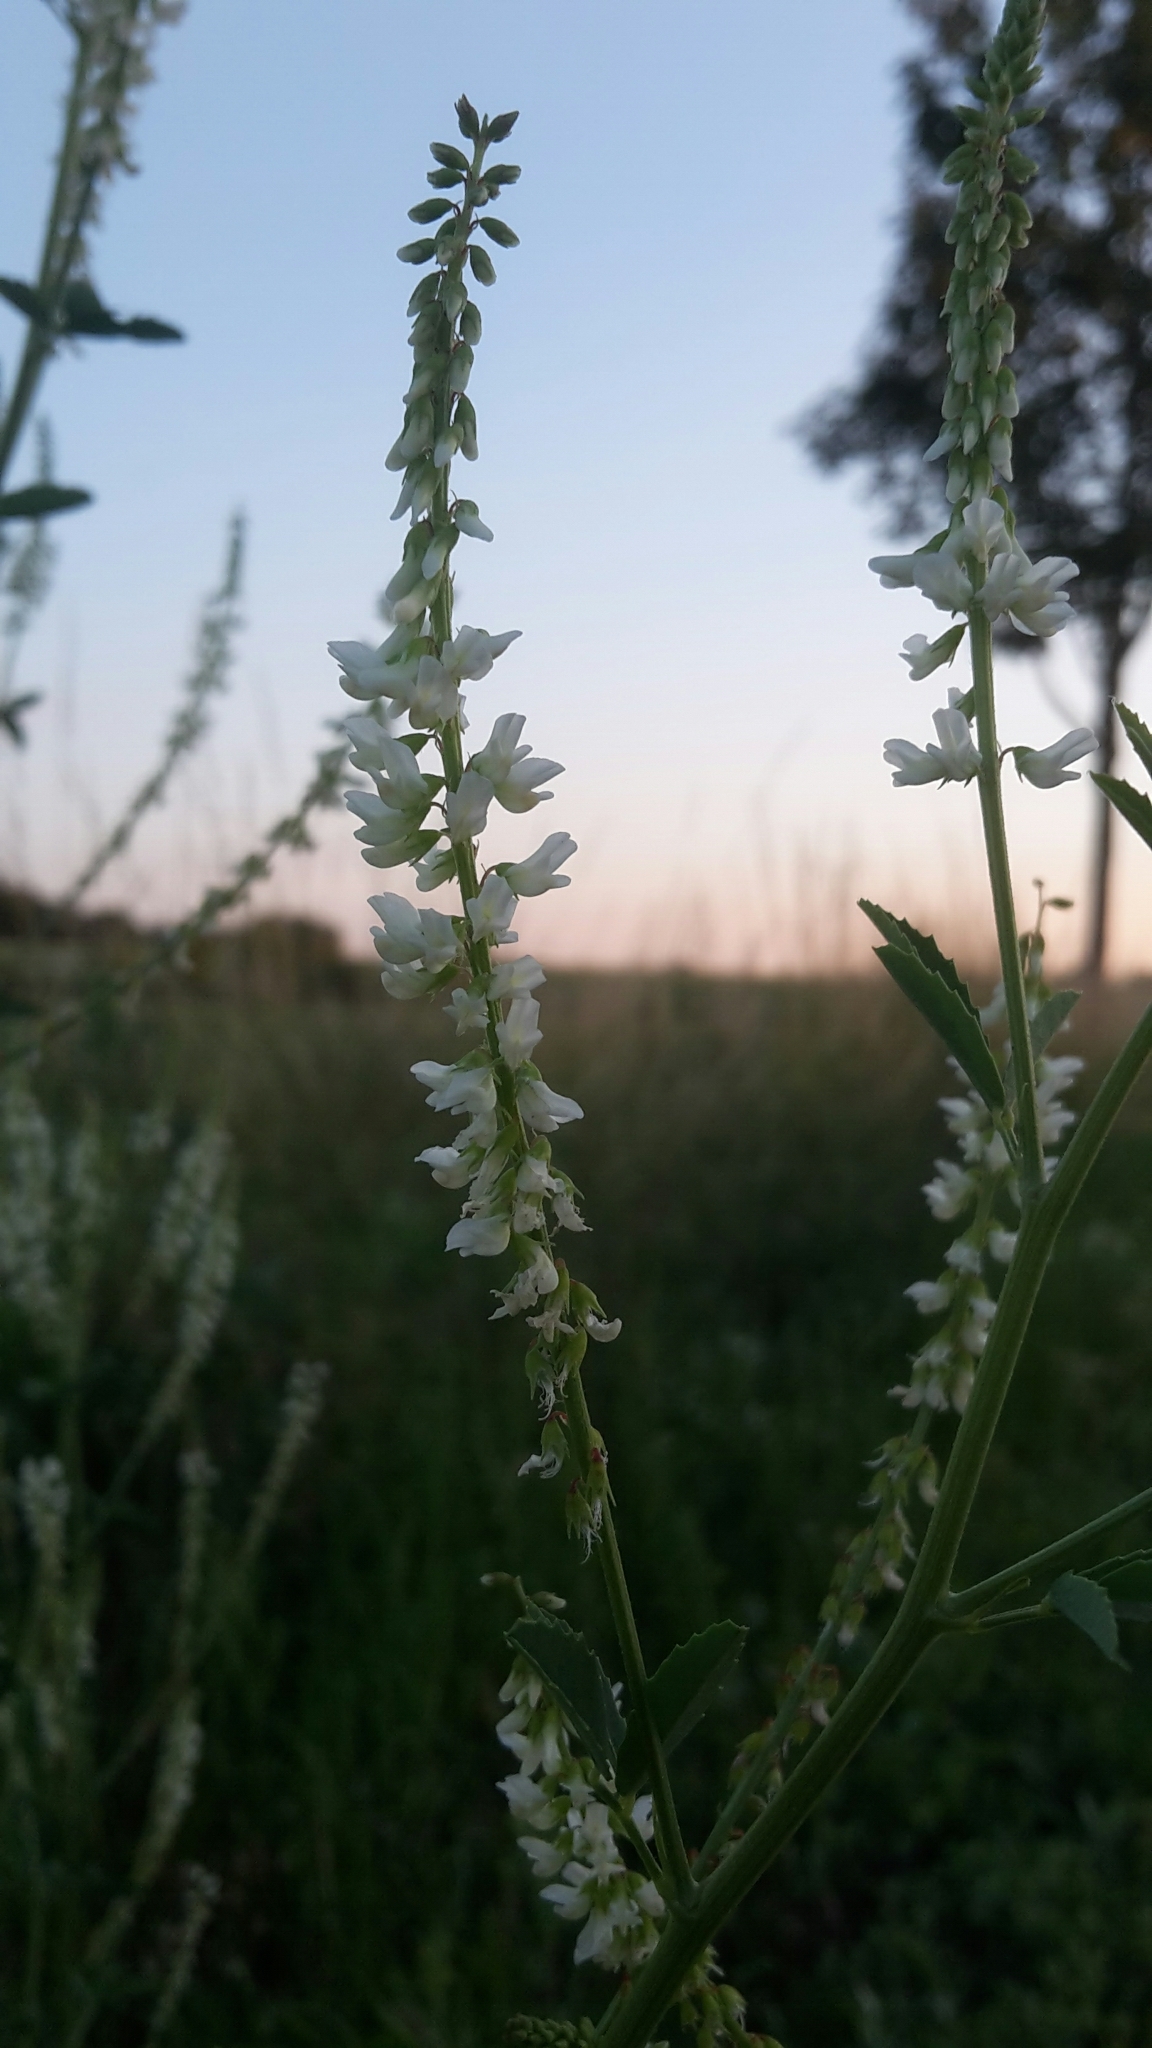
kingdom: Plantae
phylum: Tracheophyta
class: Magnoliopsida
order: Fabales
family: Fabaceae
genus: Melilotus
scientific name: Melilotus albus
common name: White melilot
